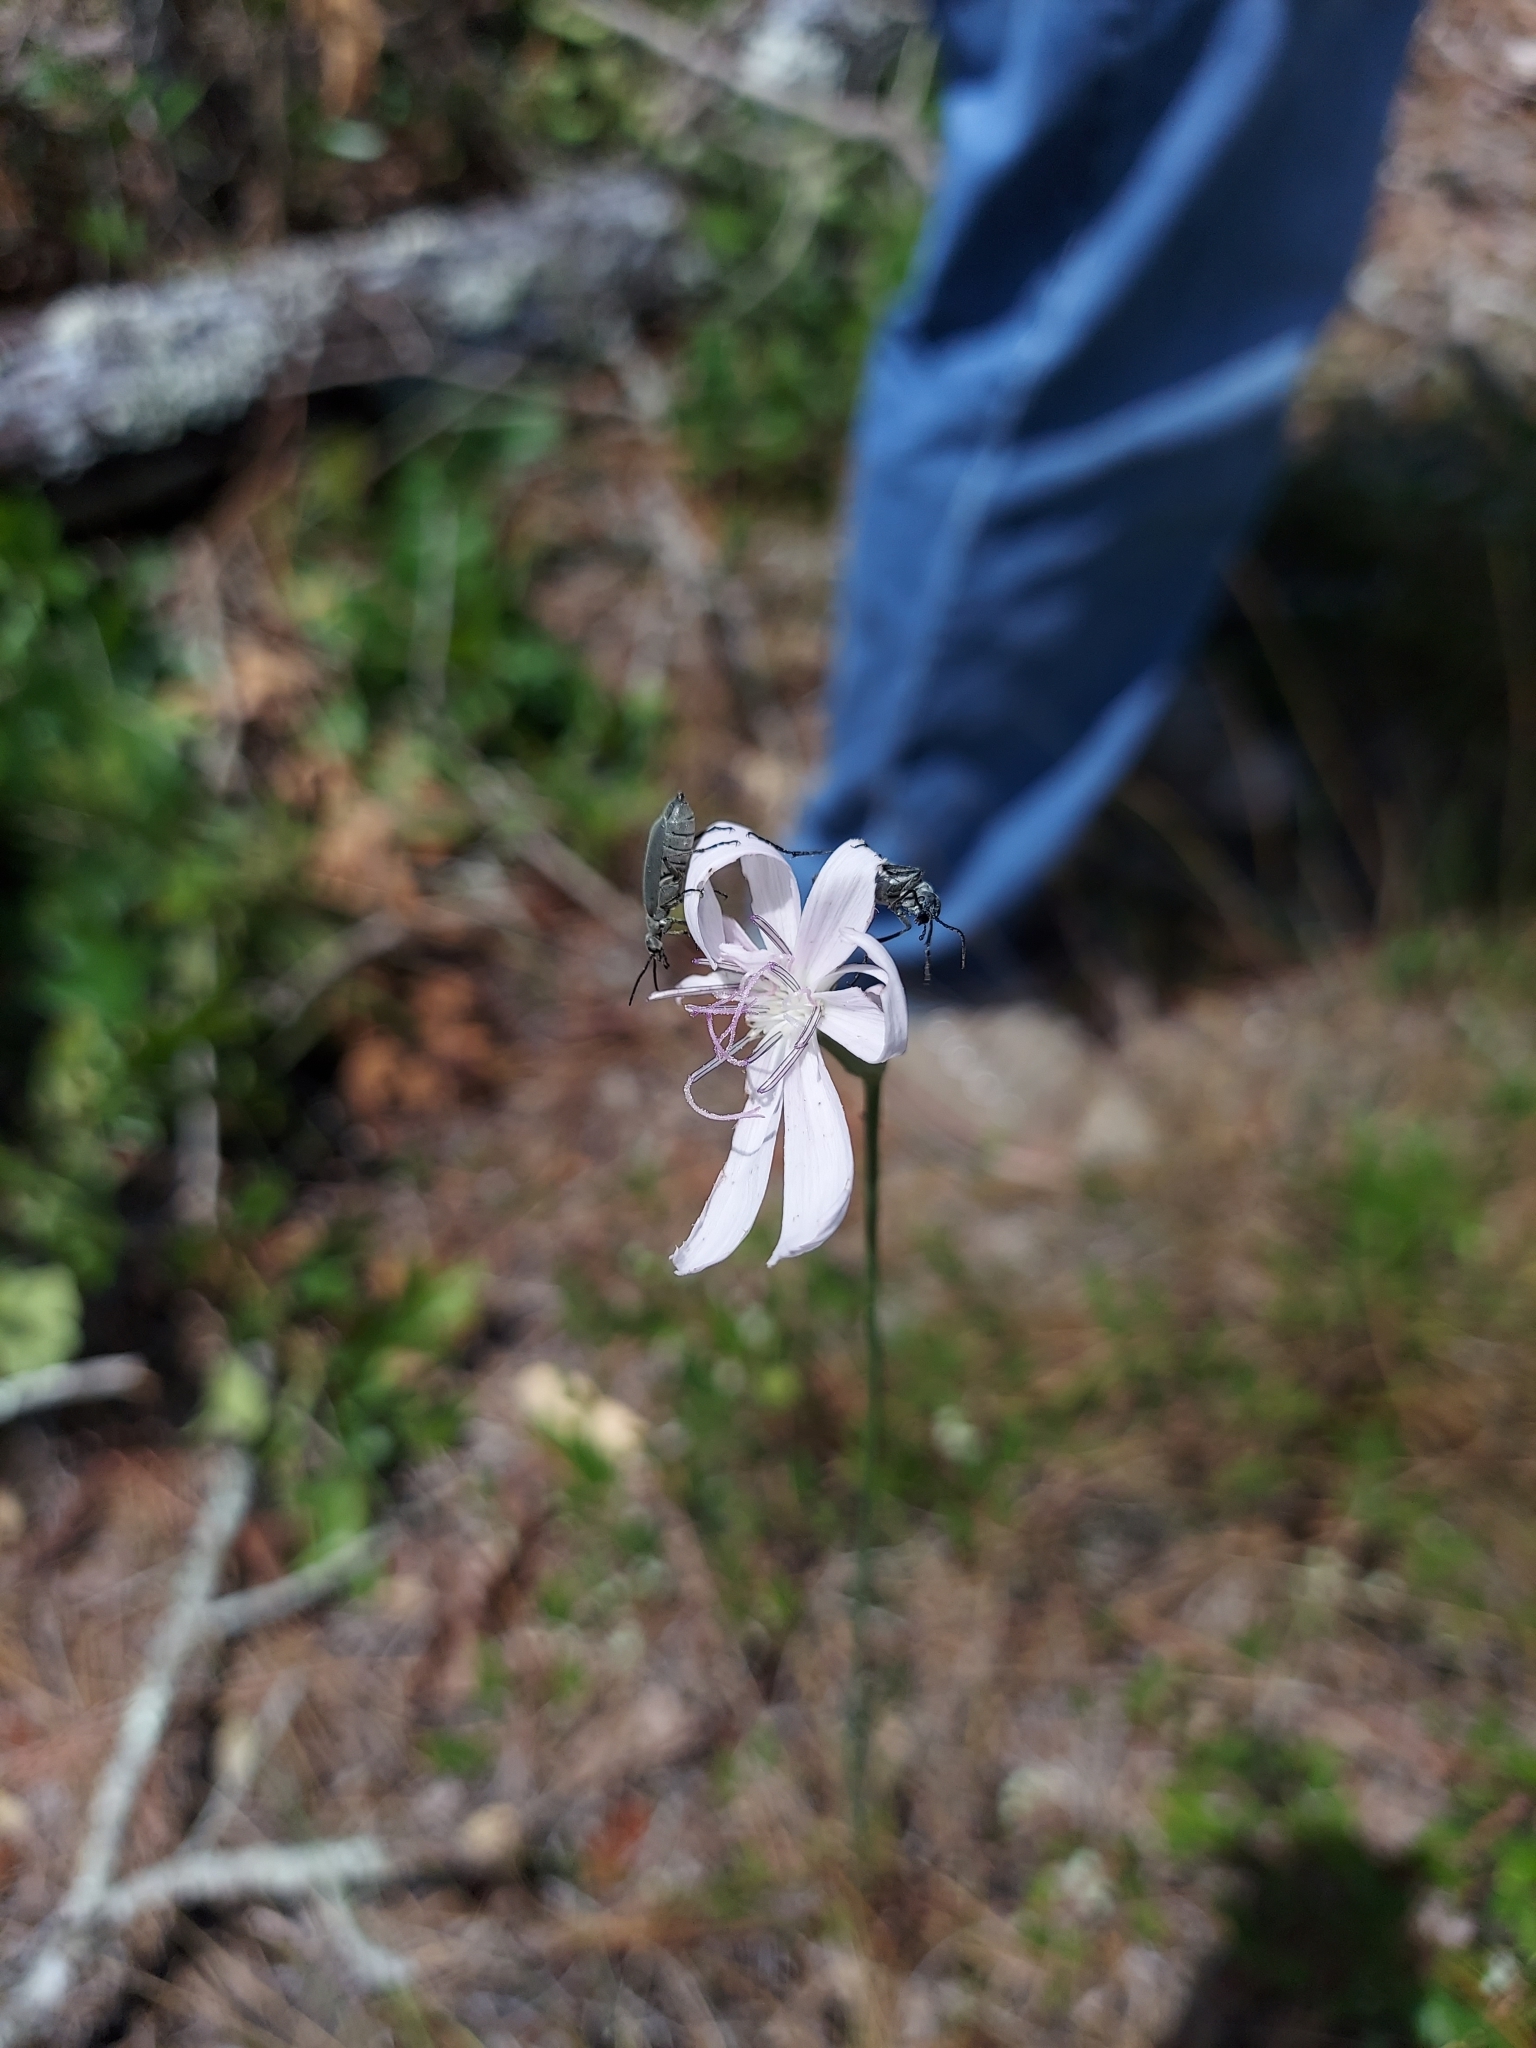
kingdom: Plantae
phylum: Tracheophyta
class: Magnoliopsida
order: Asterales
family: Asteraceae
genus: Lygodesmia
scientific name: Lygodesmia aphylla
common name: Rose-rush
